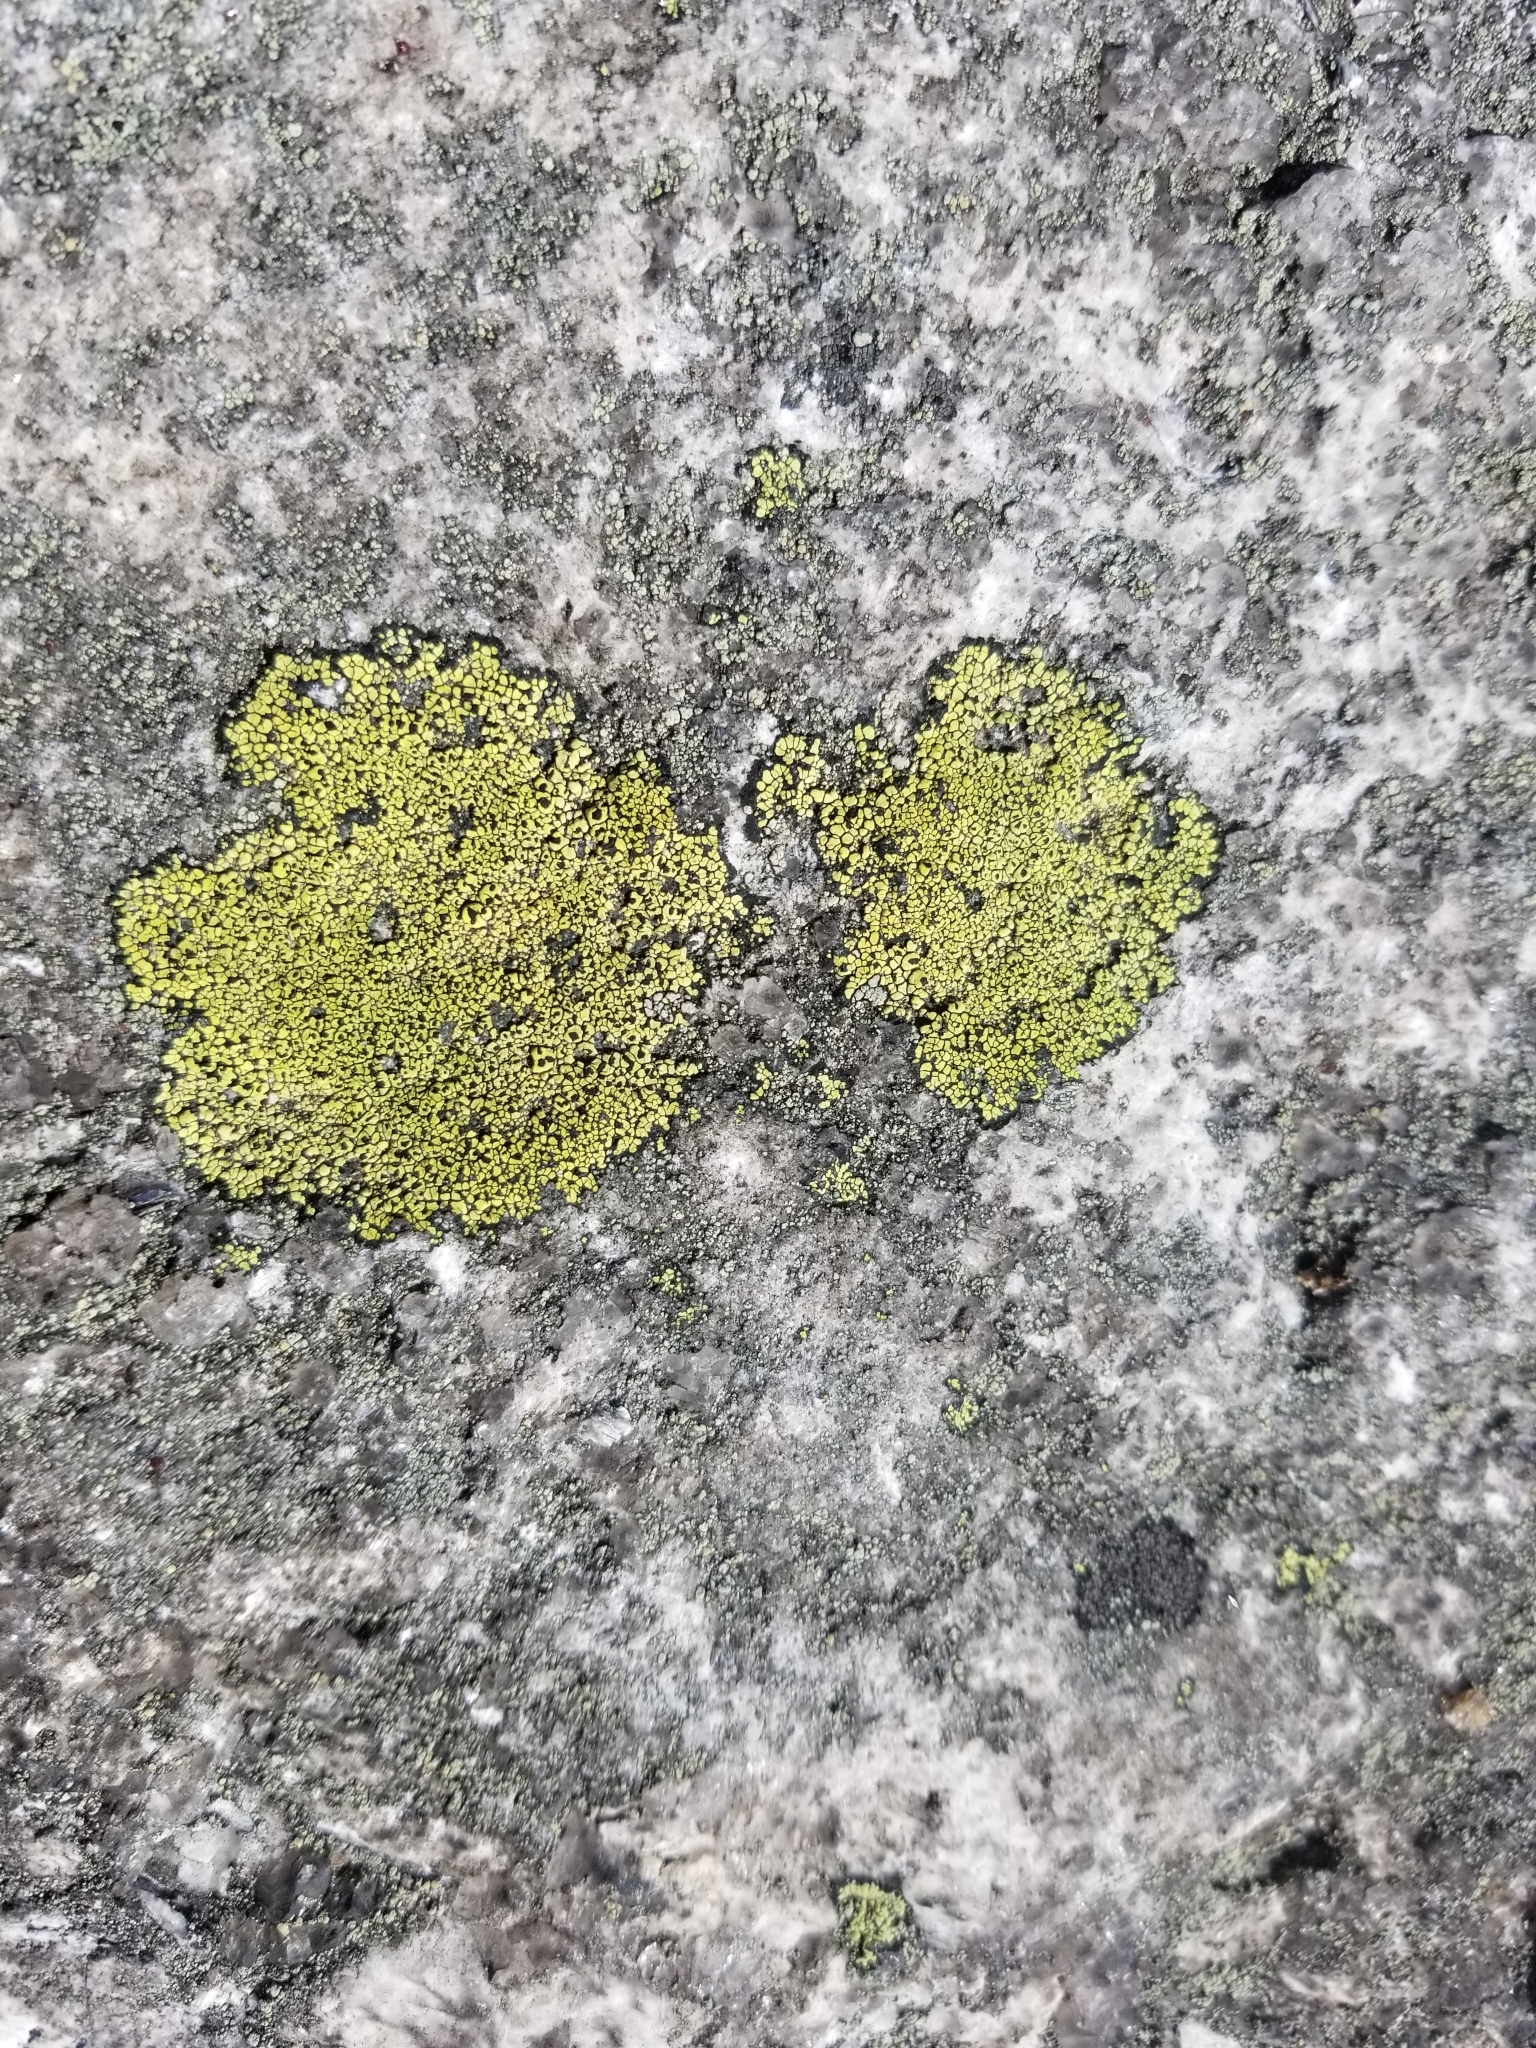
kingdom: Fungi
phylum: Ascomycota
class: Lecanoromycetes
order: Rhizocarpales
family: Rhizocarpaceae
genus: Rhizocarpon
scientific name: Rhizocarpon geographicum
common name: Yellow map lichen
